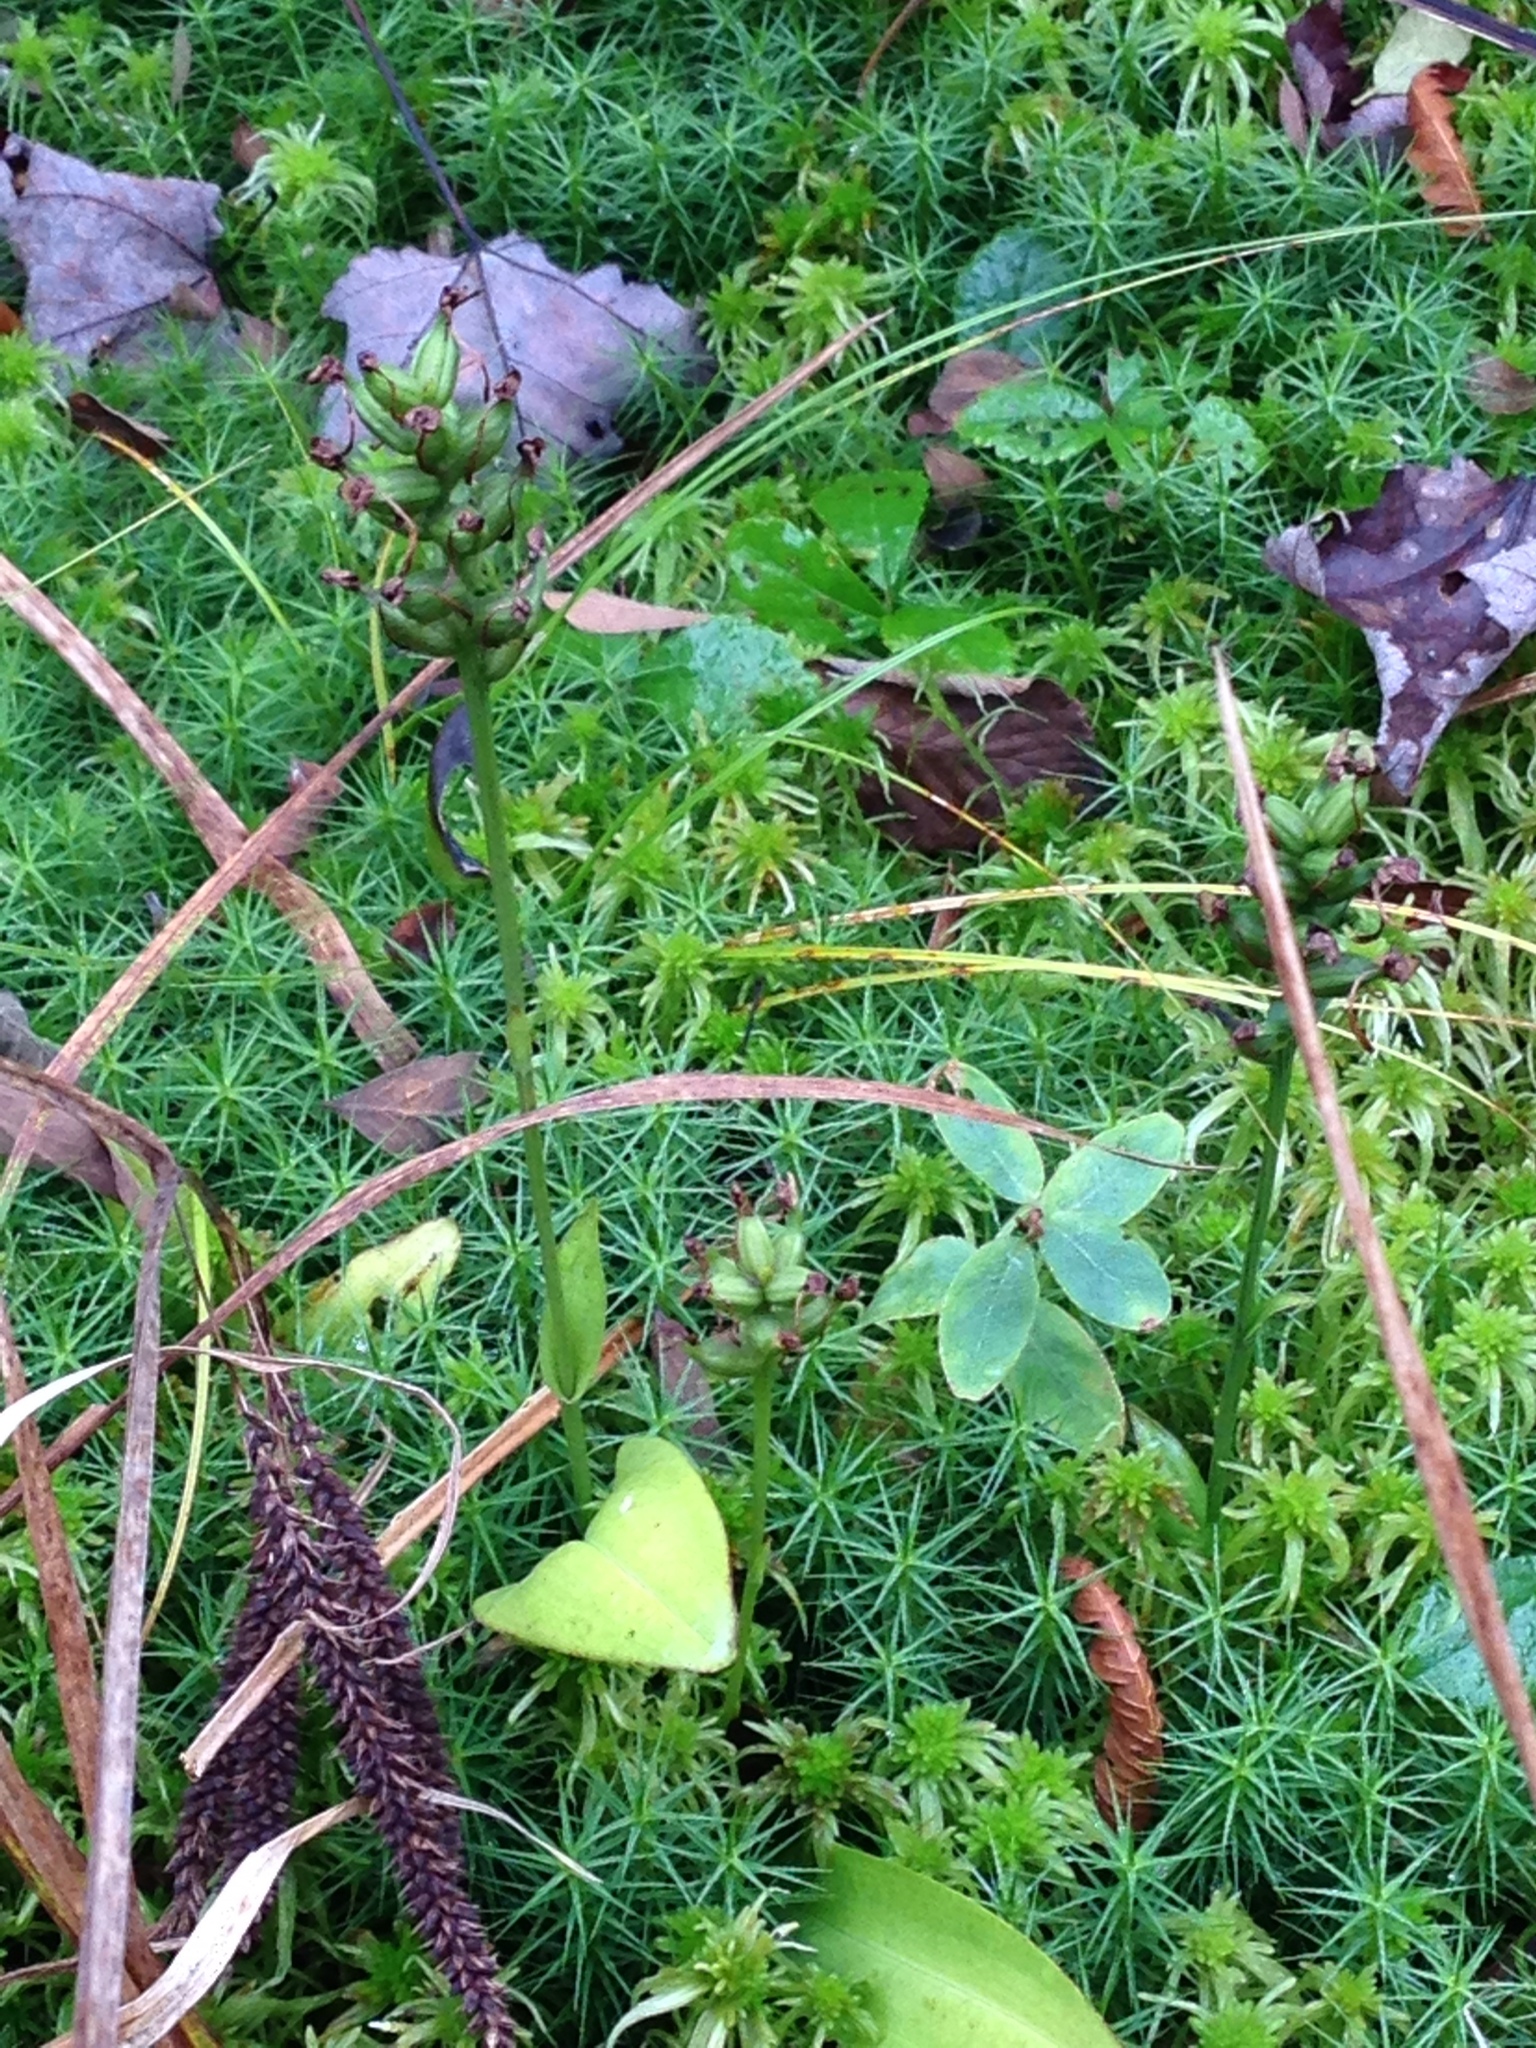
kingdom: Plantae
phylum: Tracheophyta
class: Liliopsida
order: Asparagales
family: Orchidaceae
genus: Platanthera
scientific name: Platanthera clavellata
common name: Club-spur orchid
